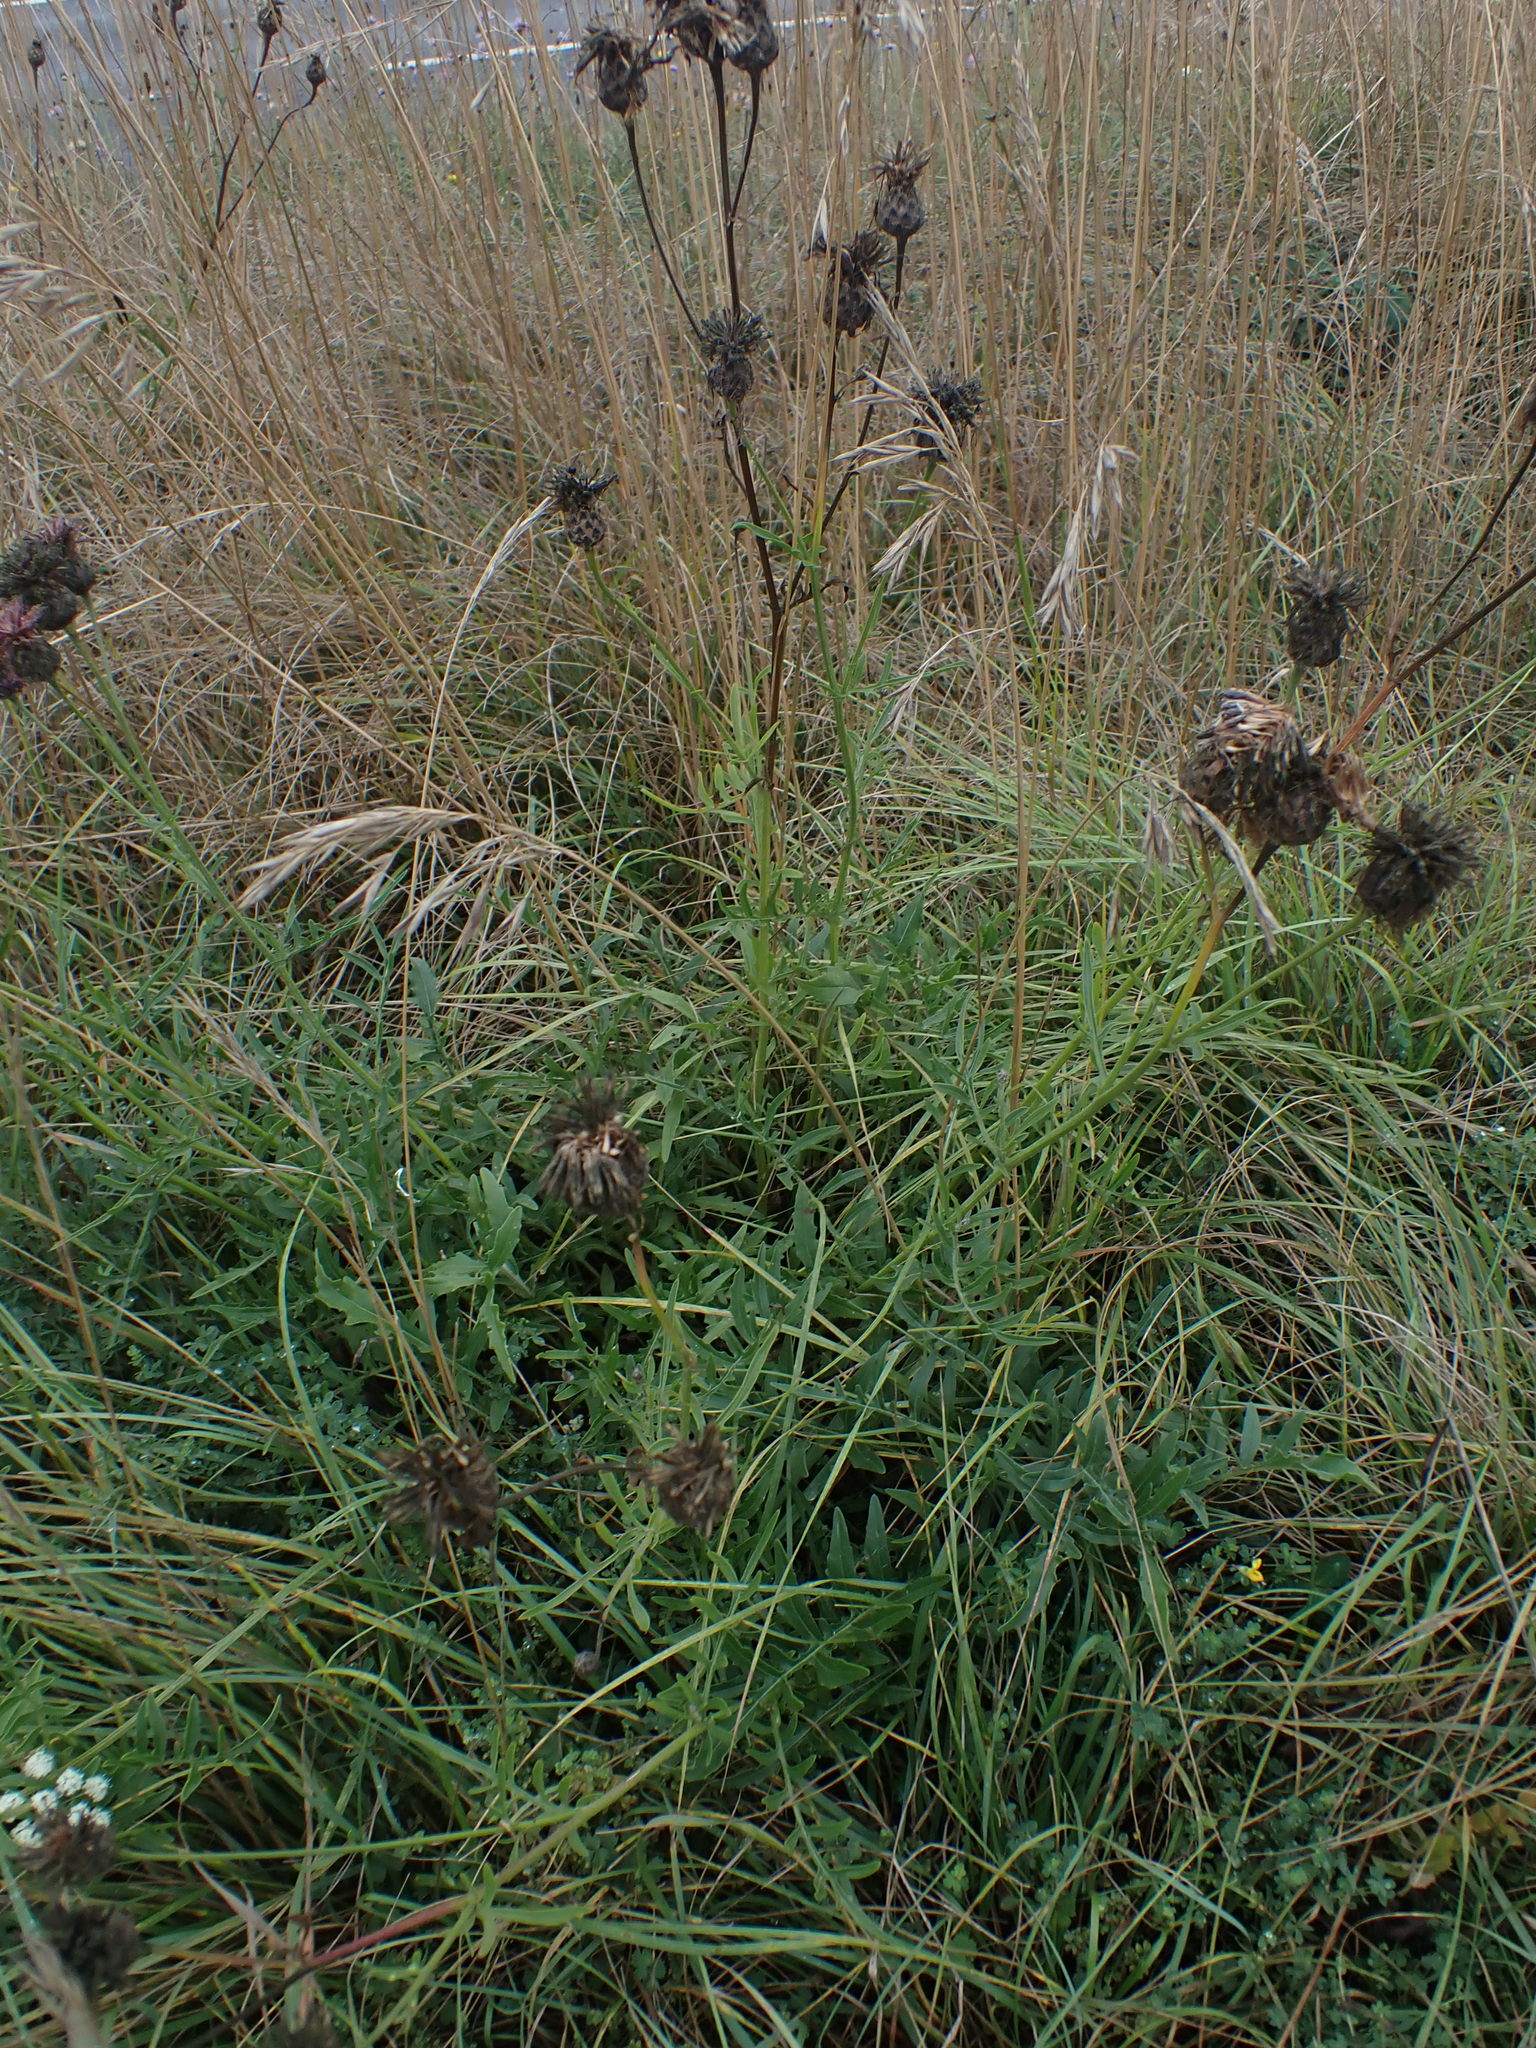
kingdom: Plantae
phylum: Tracheophyta
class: Magnoliopsida
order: Asterales
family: Asteraceae
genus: Centaurea
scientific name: Centaurea scabiosa
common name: Greater knapweed
